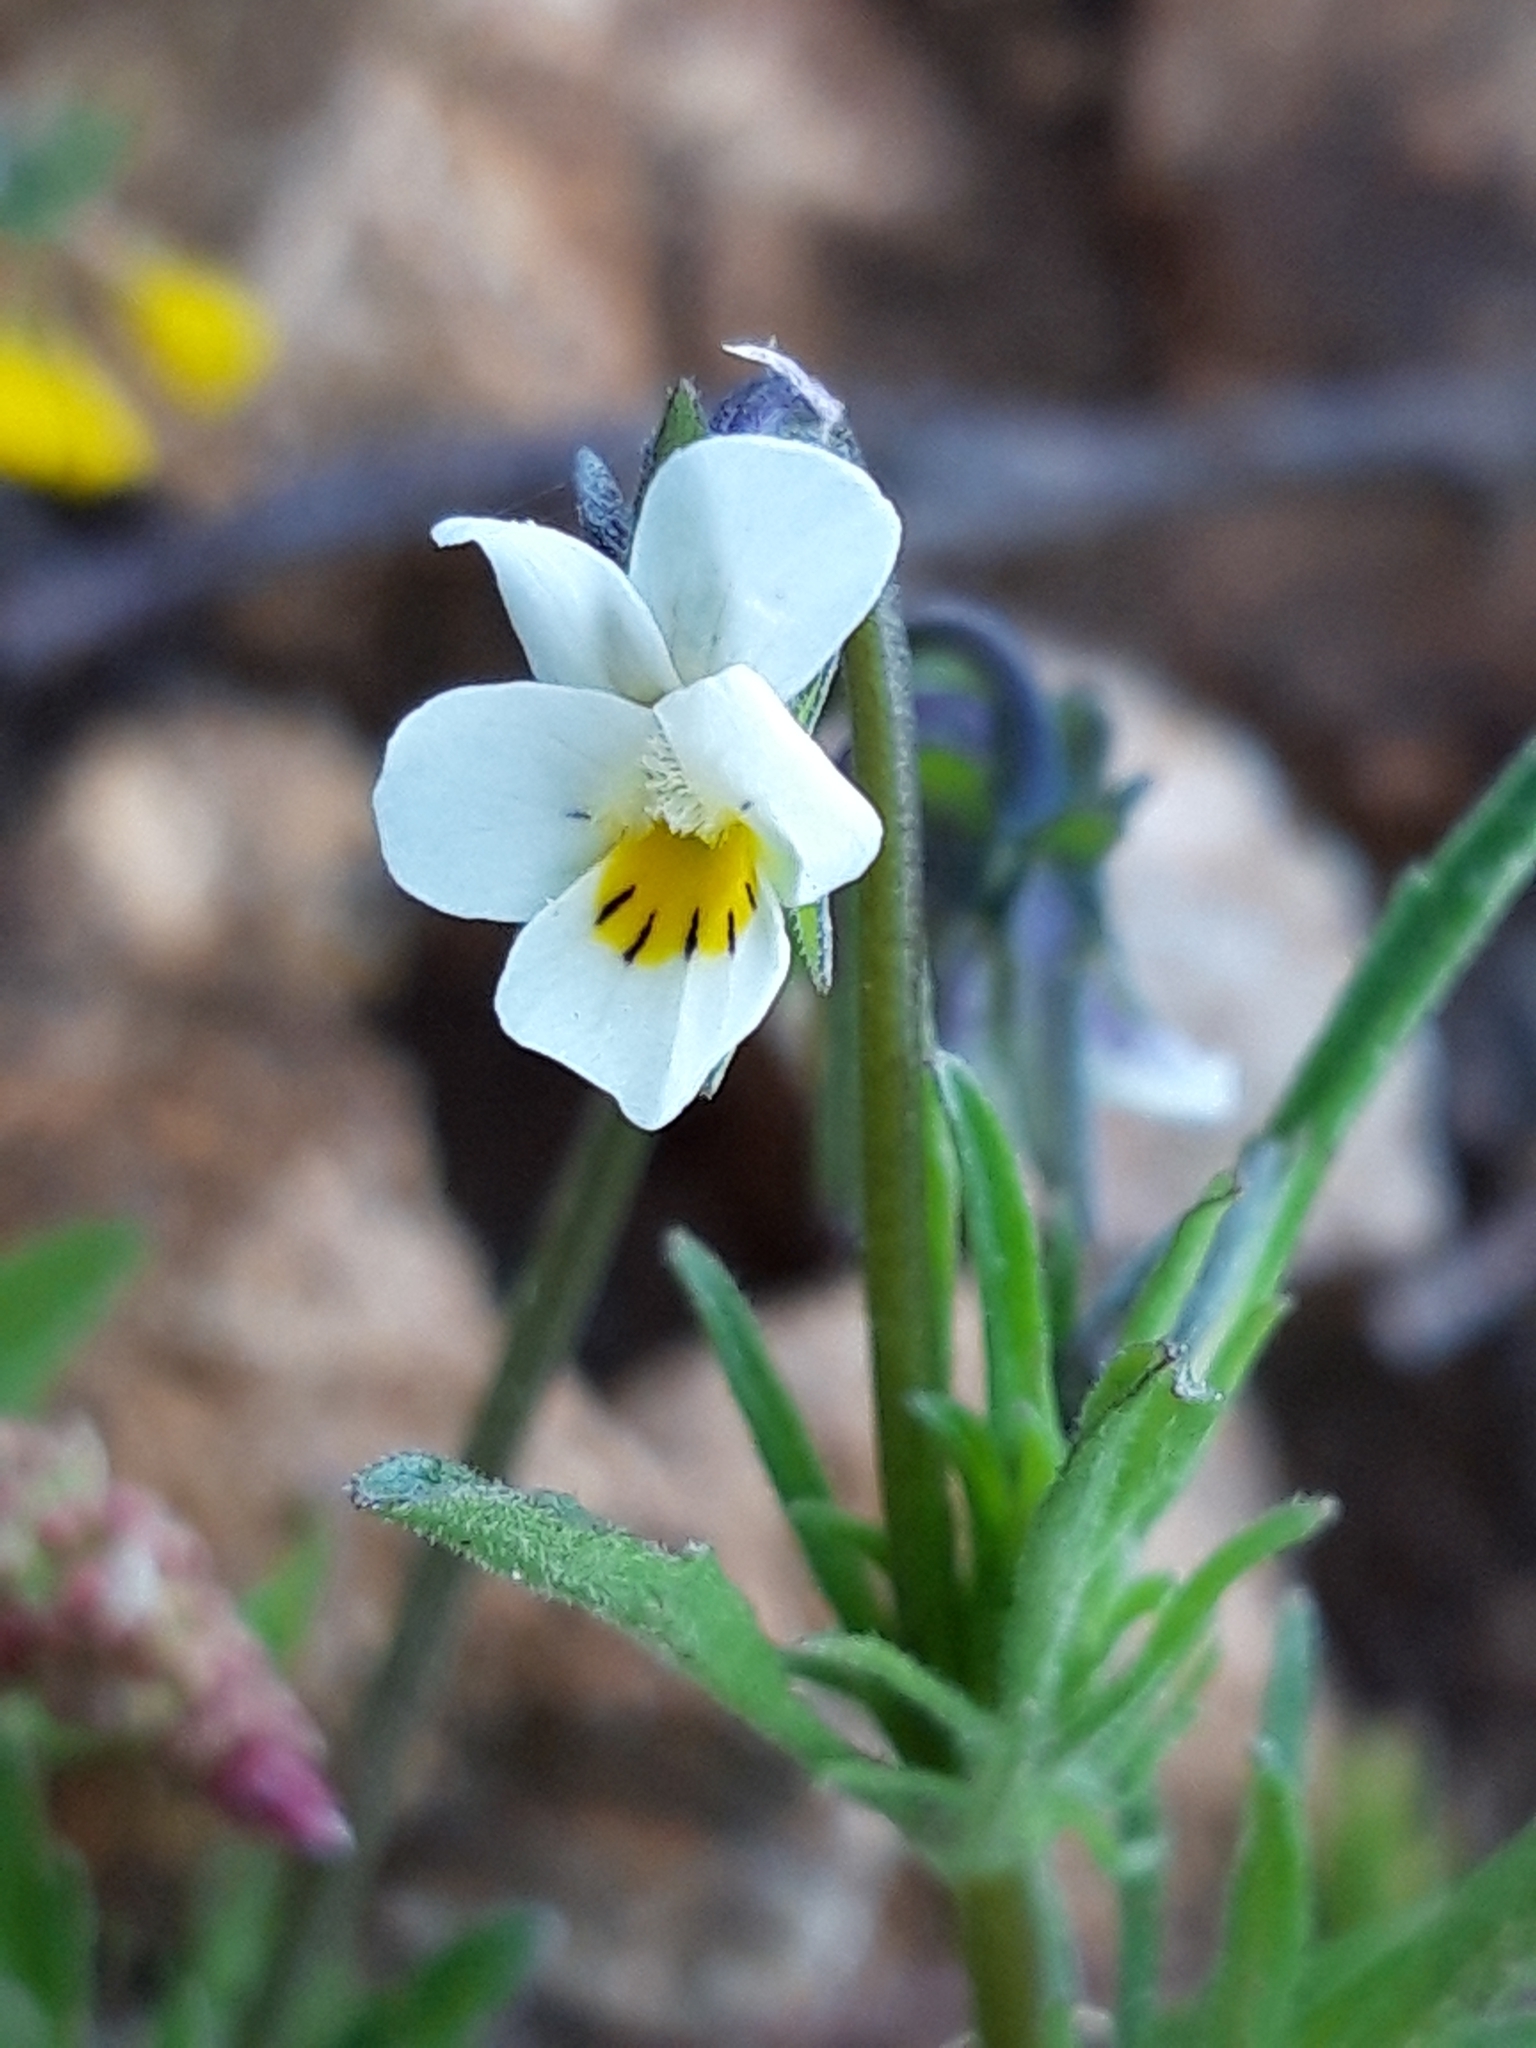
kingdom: Plantae
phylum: Tracheophyta
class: Magnoliopsida
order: Malpighiales
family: Violaceae
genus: Viola
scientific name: Viola kitaibeliana
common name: Dwarf pansy
